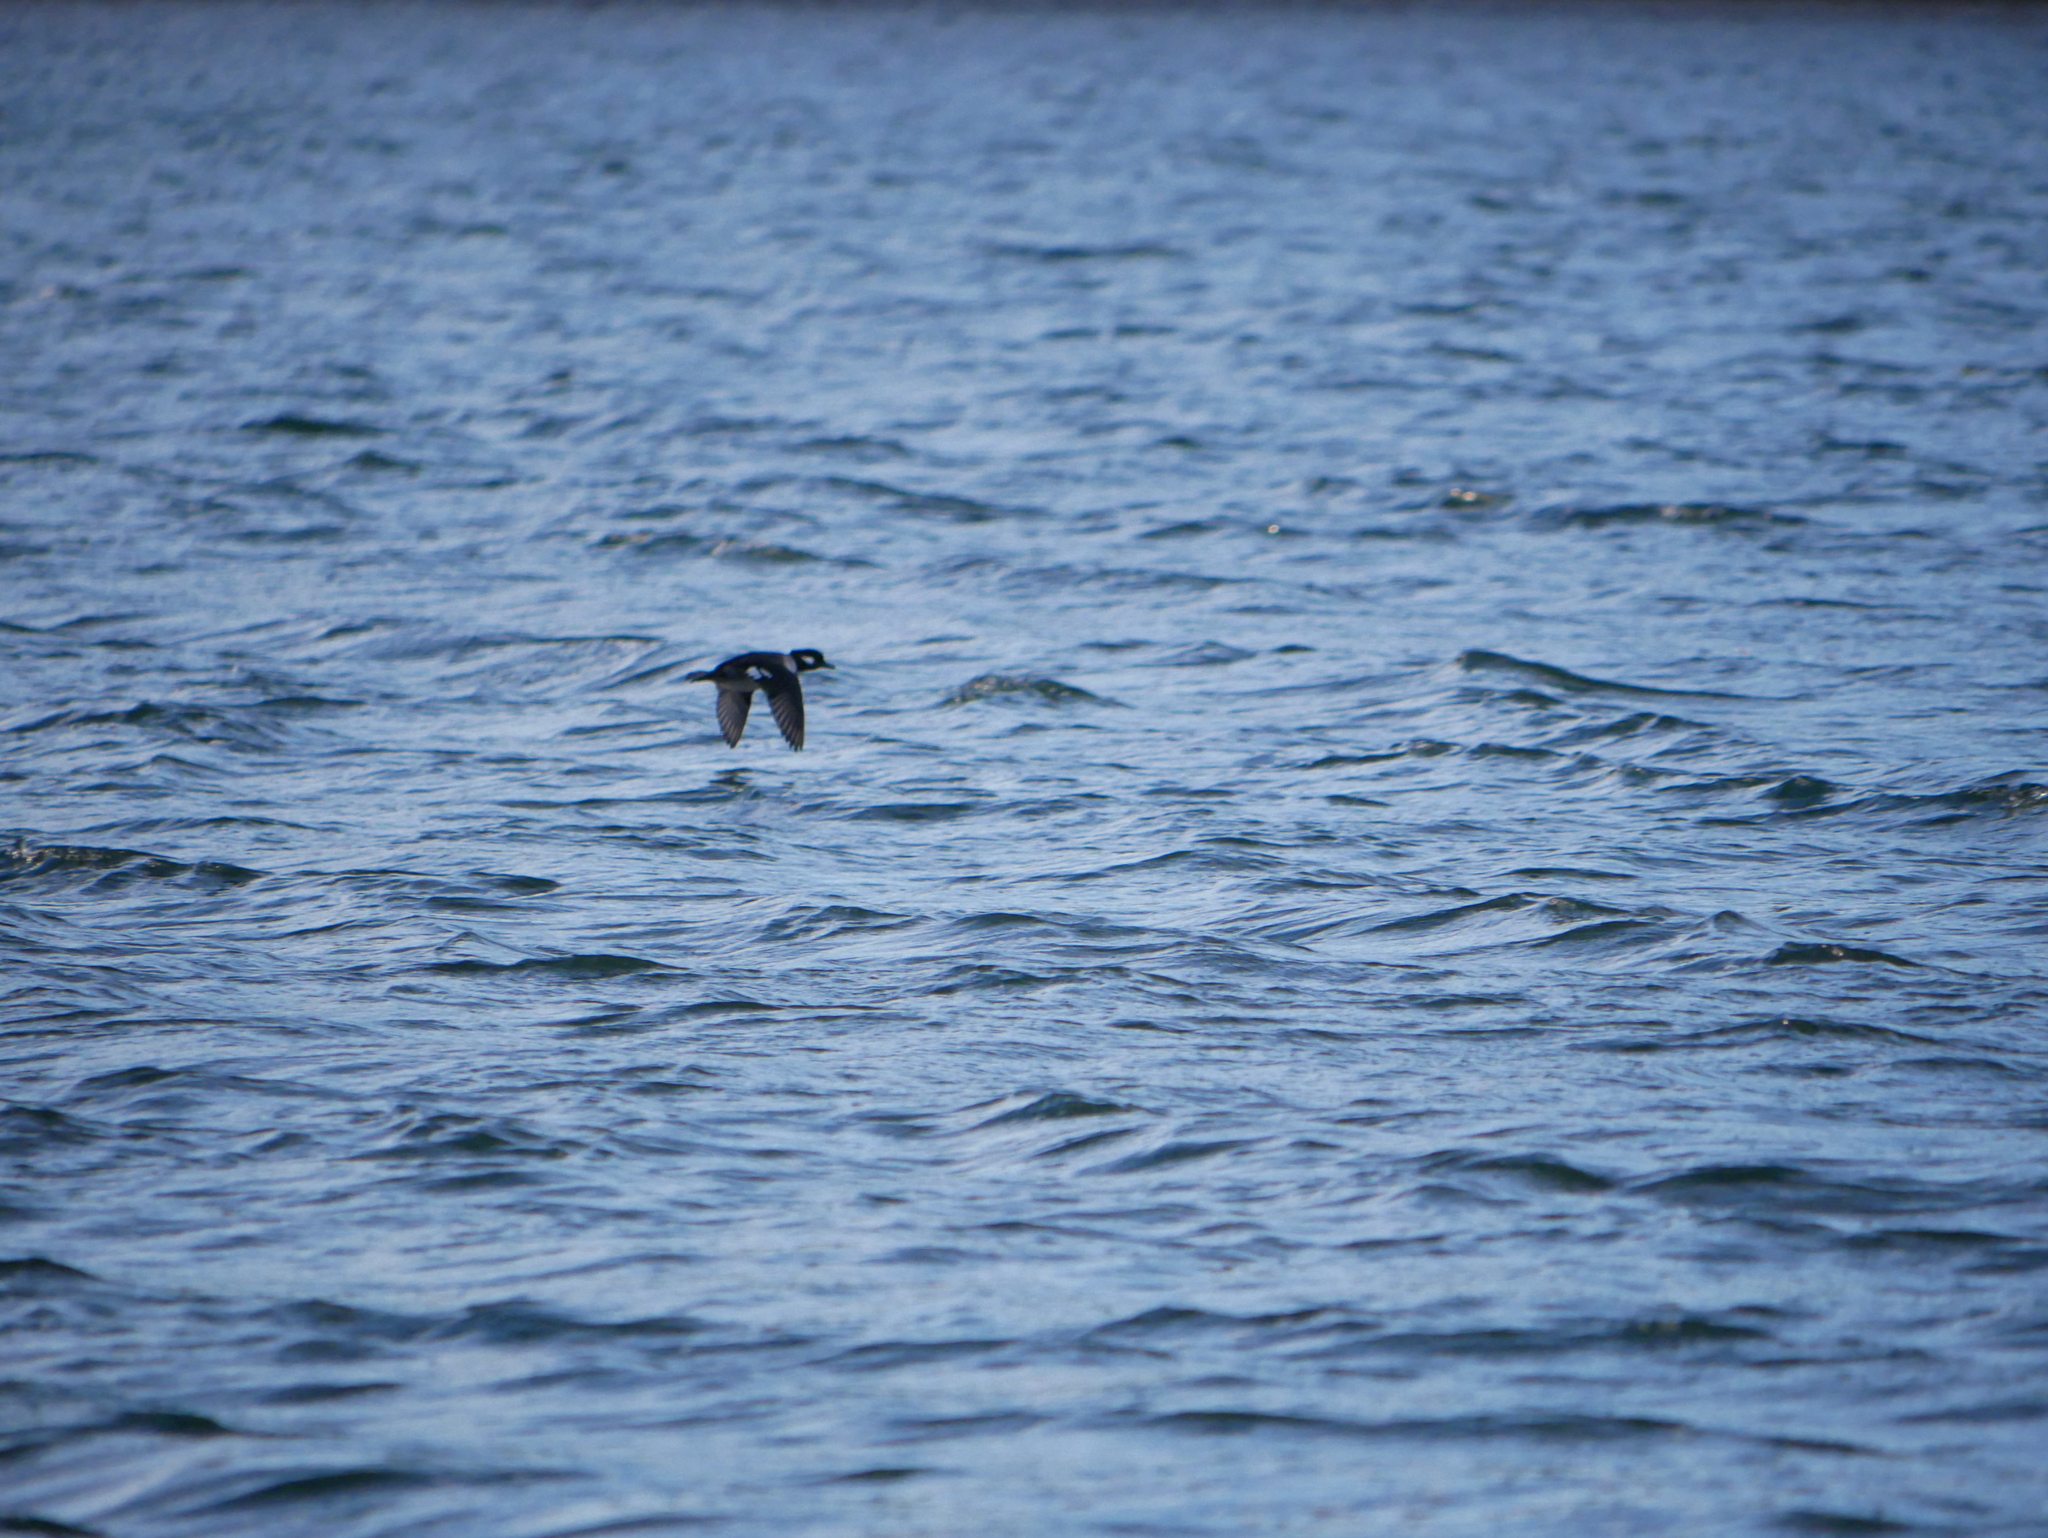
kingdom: Animalia
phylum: Chordata
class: Aves
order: Anseriformes
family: Anatidae
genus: Bucephala
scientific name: Bucephala albeola
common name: Bufflehead
